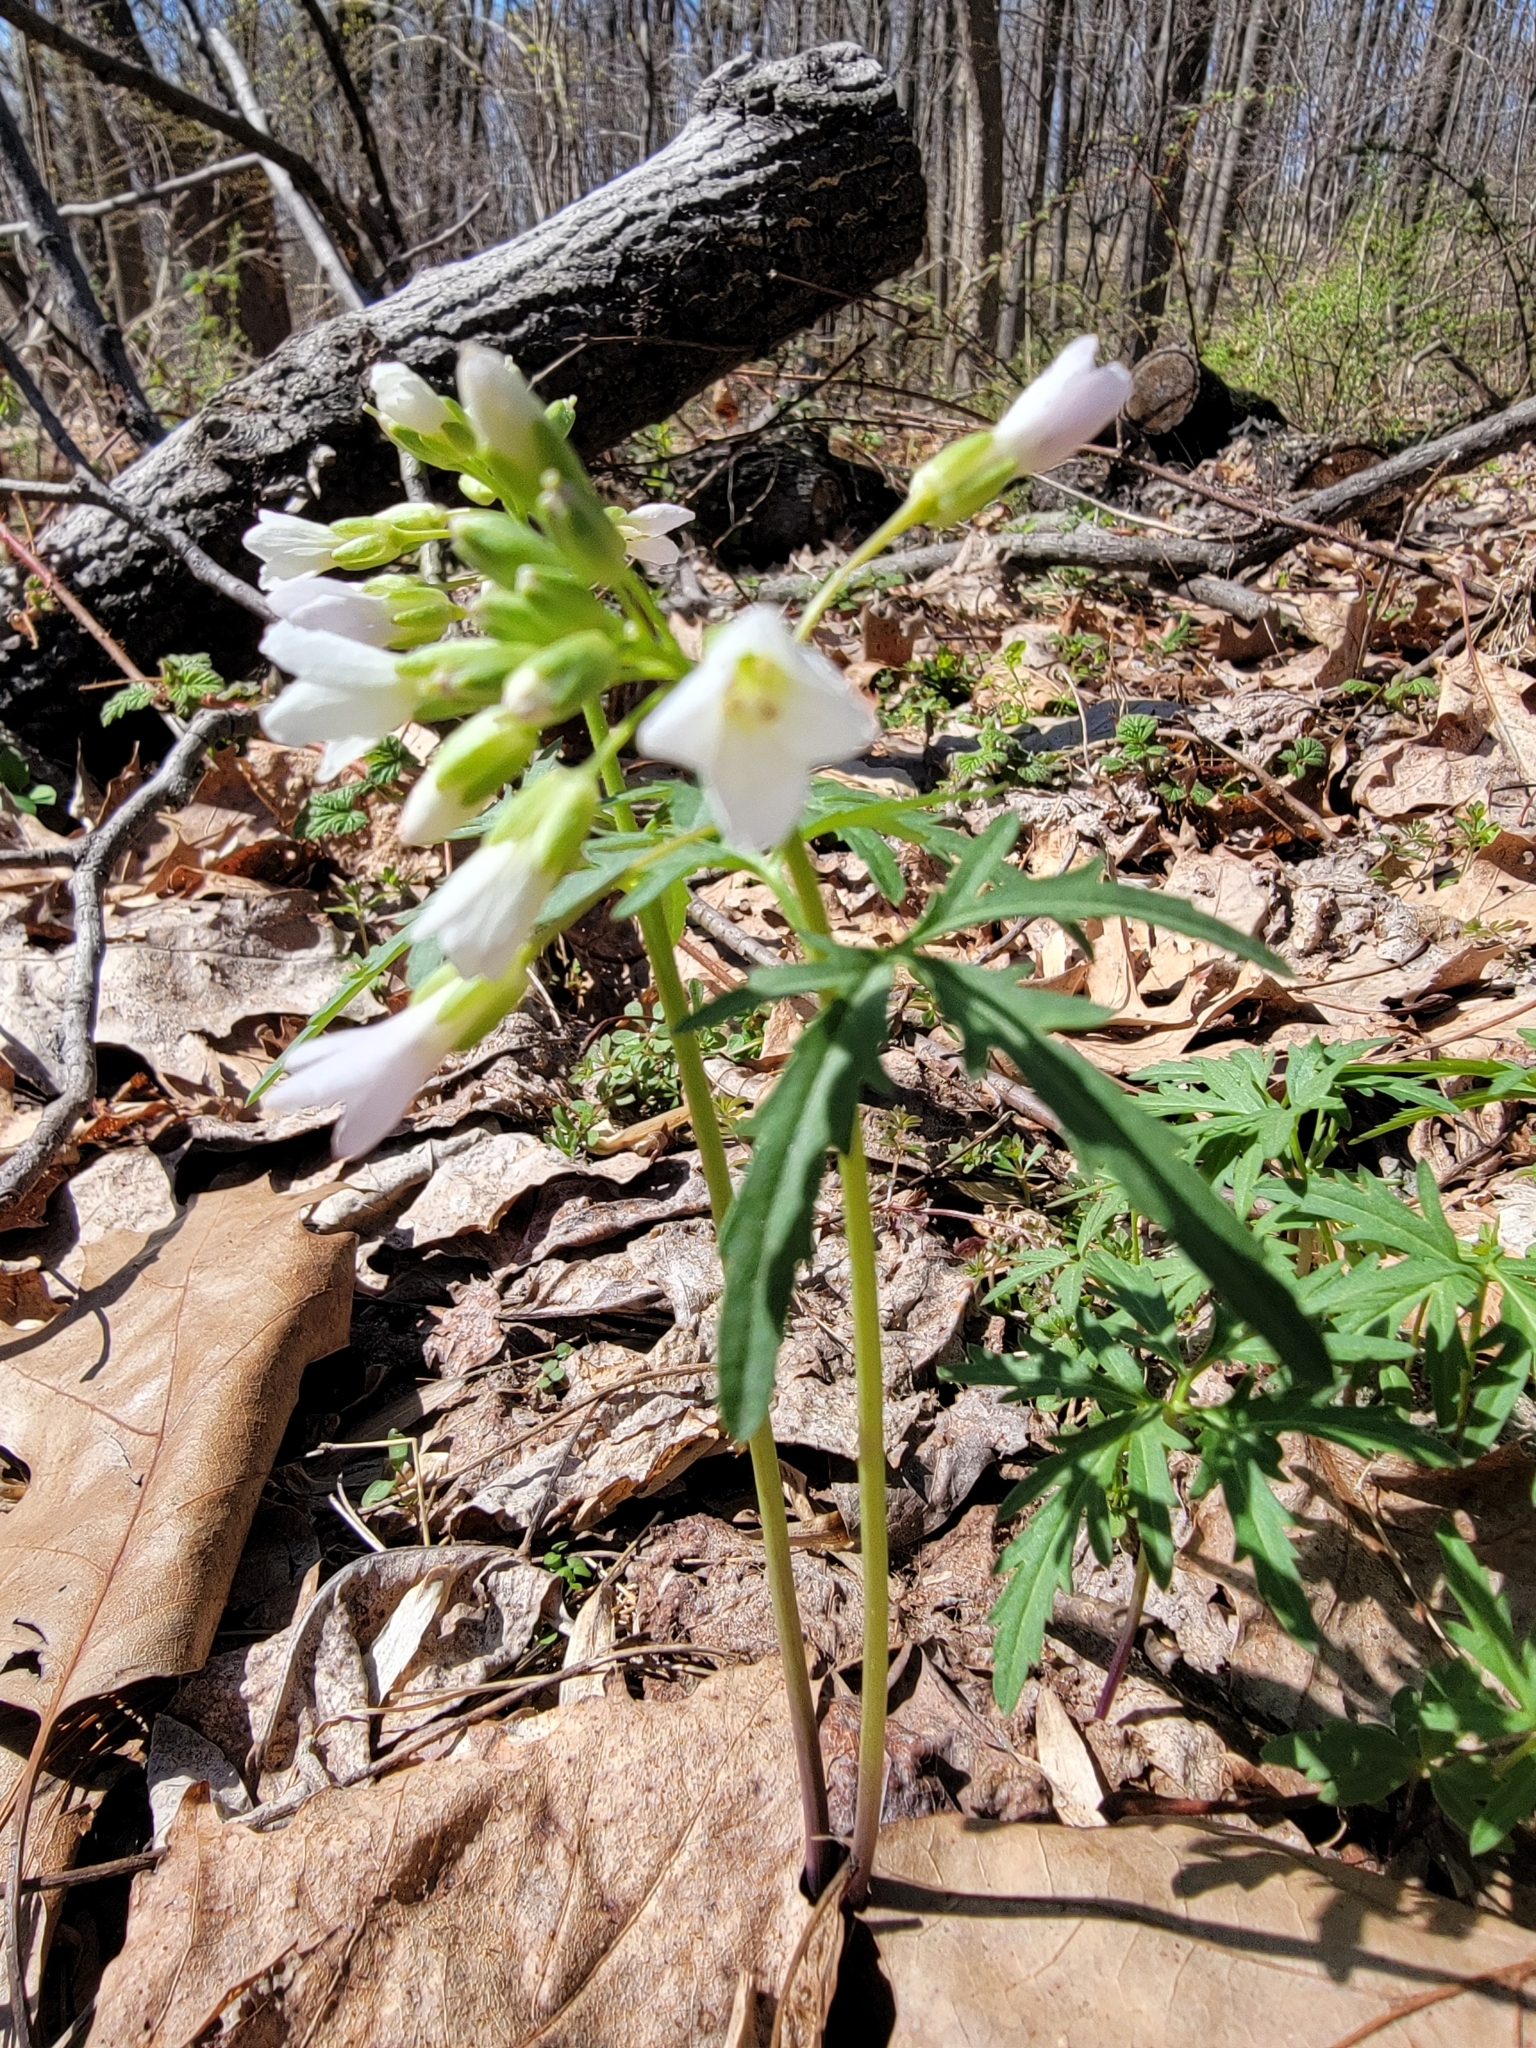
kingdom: Plantae
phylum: Tracheophyta
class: Magnoliopsida
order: Brassicales
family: Brassicaceae
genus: Cardamine
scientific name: Cardamine concatenata
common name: Cut-leaf toothcup
